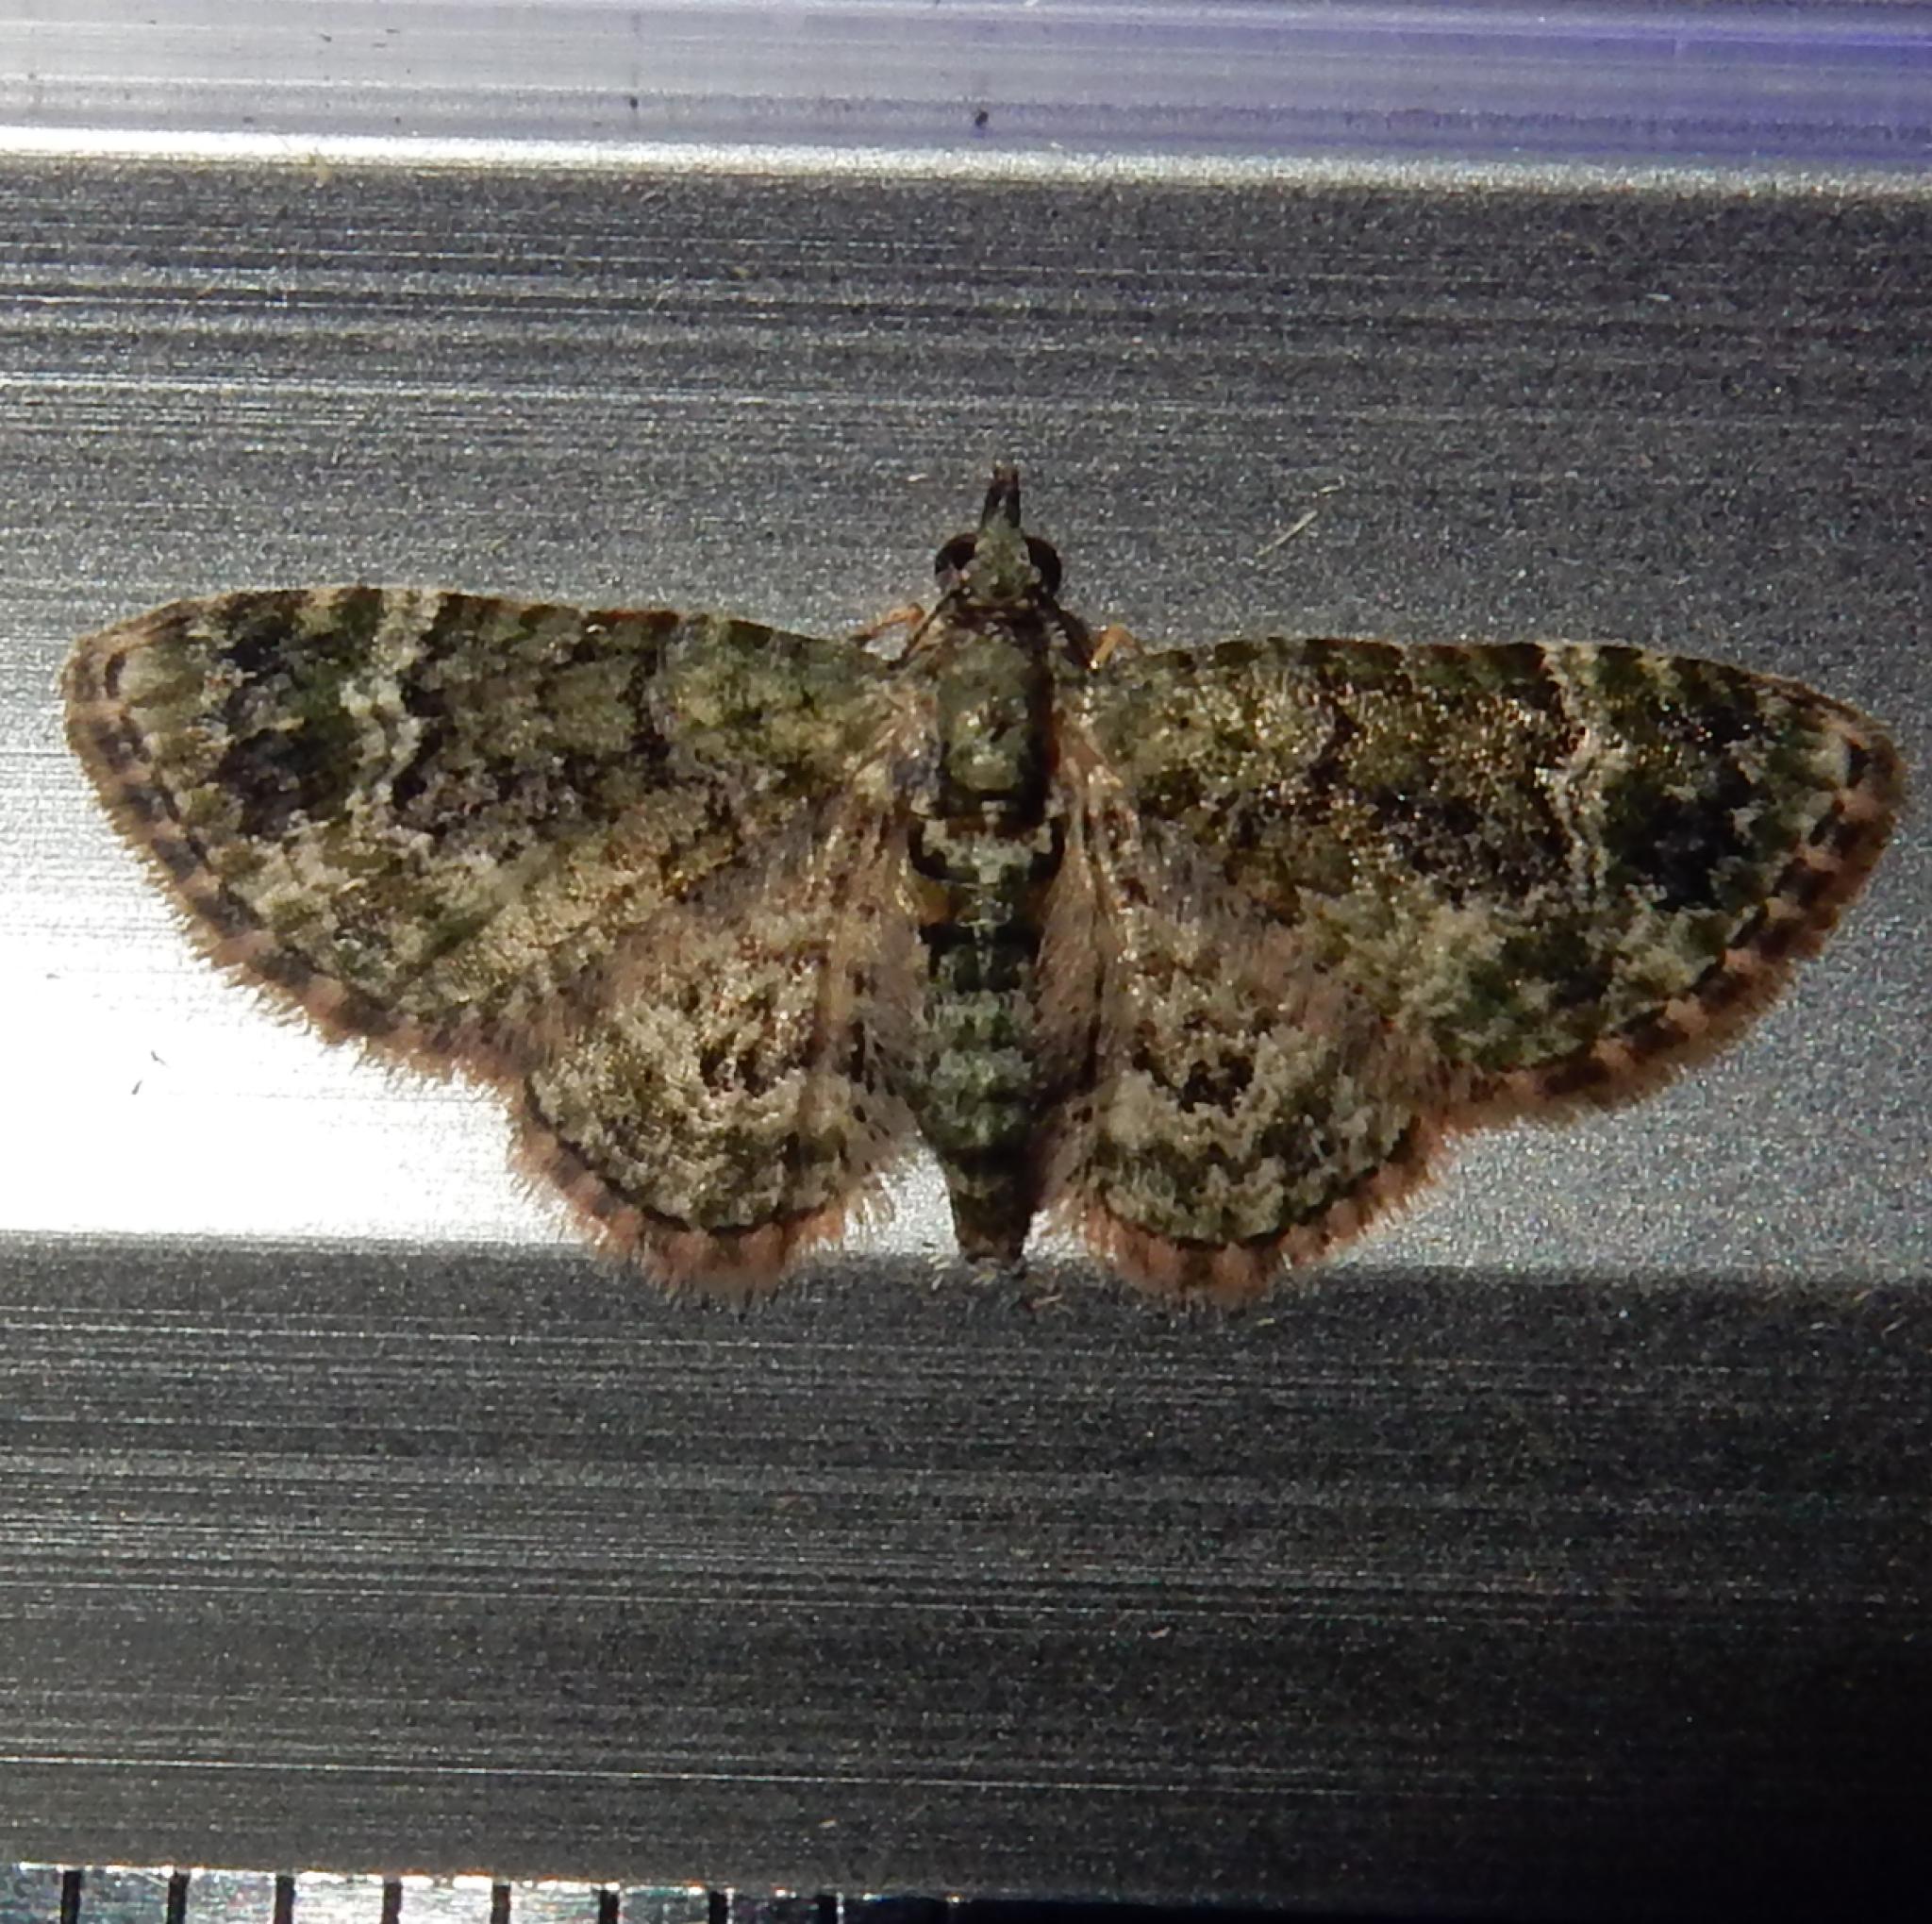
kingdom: Animalia
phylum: Arthropoda
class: Insecta
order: Lepidoptera
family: Geometridae
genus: Myrioblephara
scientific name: Myrioblephara muscosa
